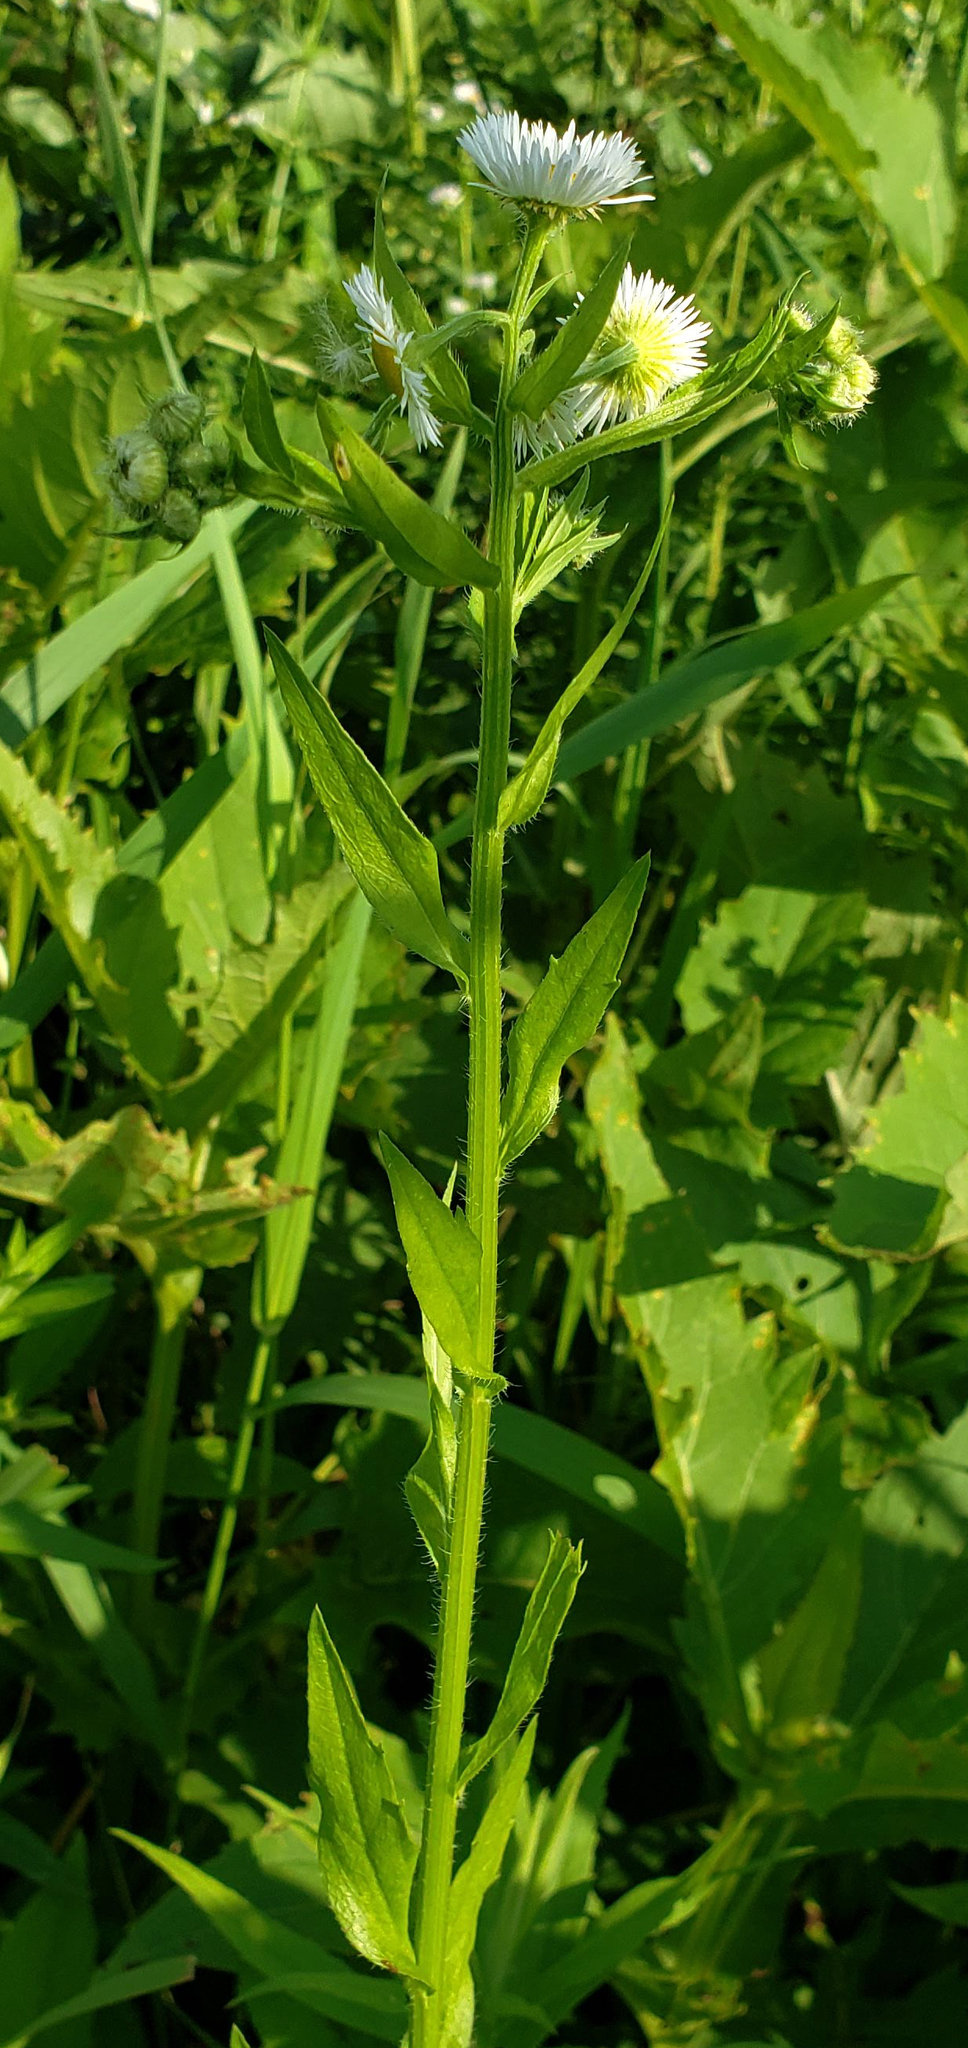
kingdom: Plantae
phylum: Tracheophyta
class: Magnoliopsida
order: Asterales
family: Asteraceae
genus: Erigeron
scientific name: Erigeron annuus
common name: Tall fleabane
